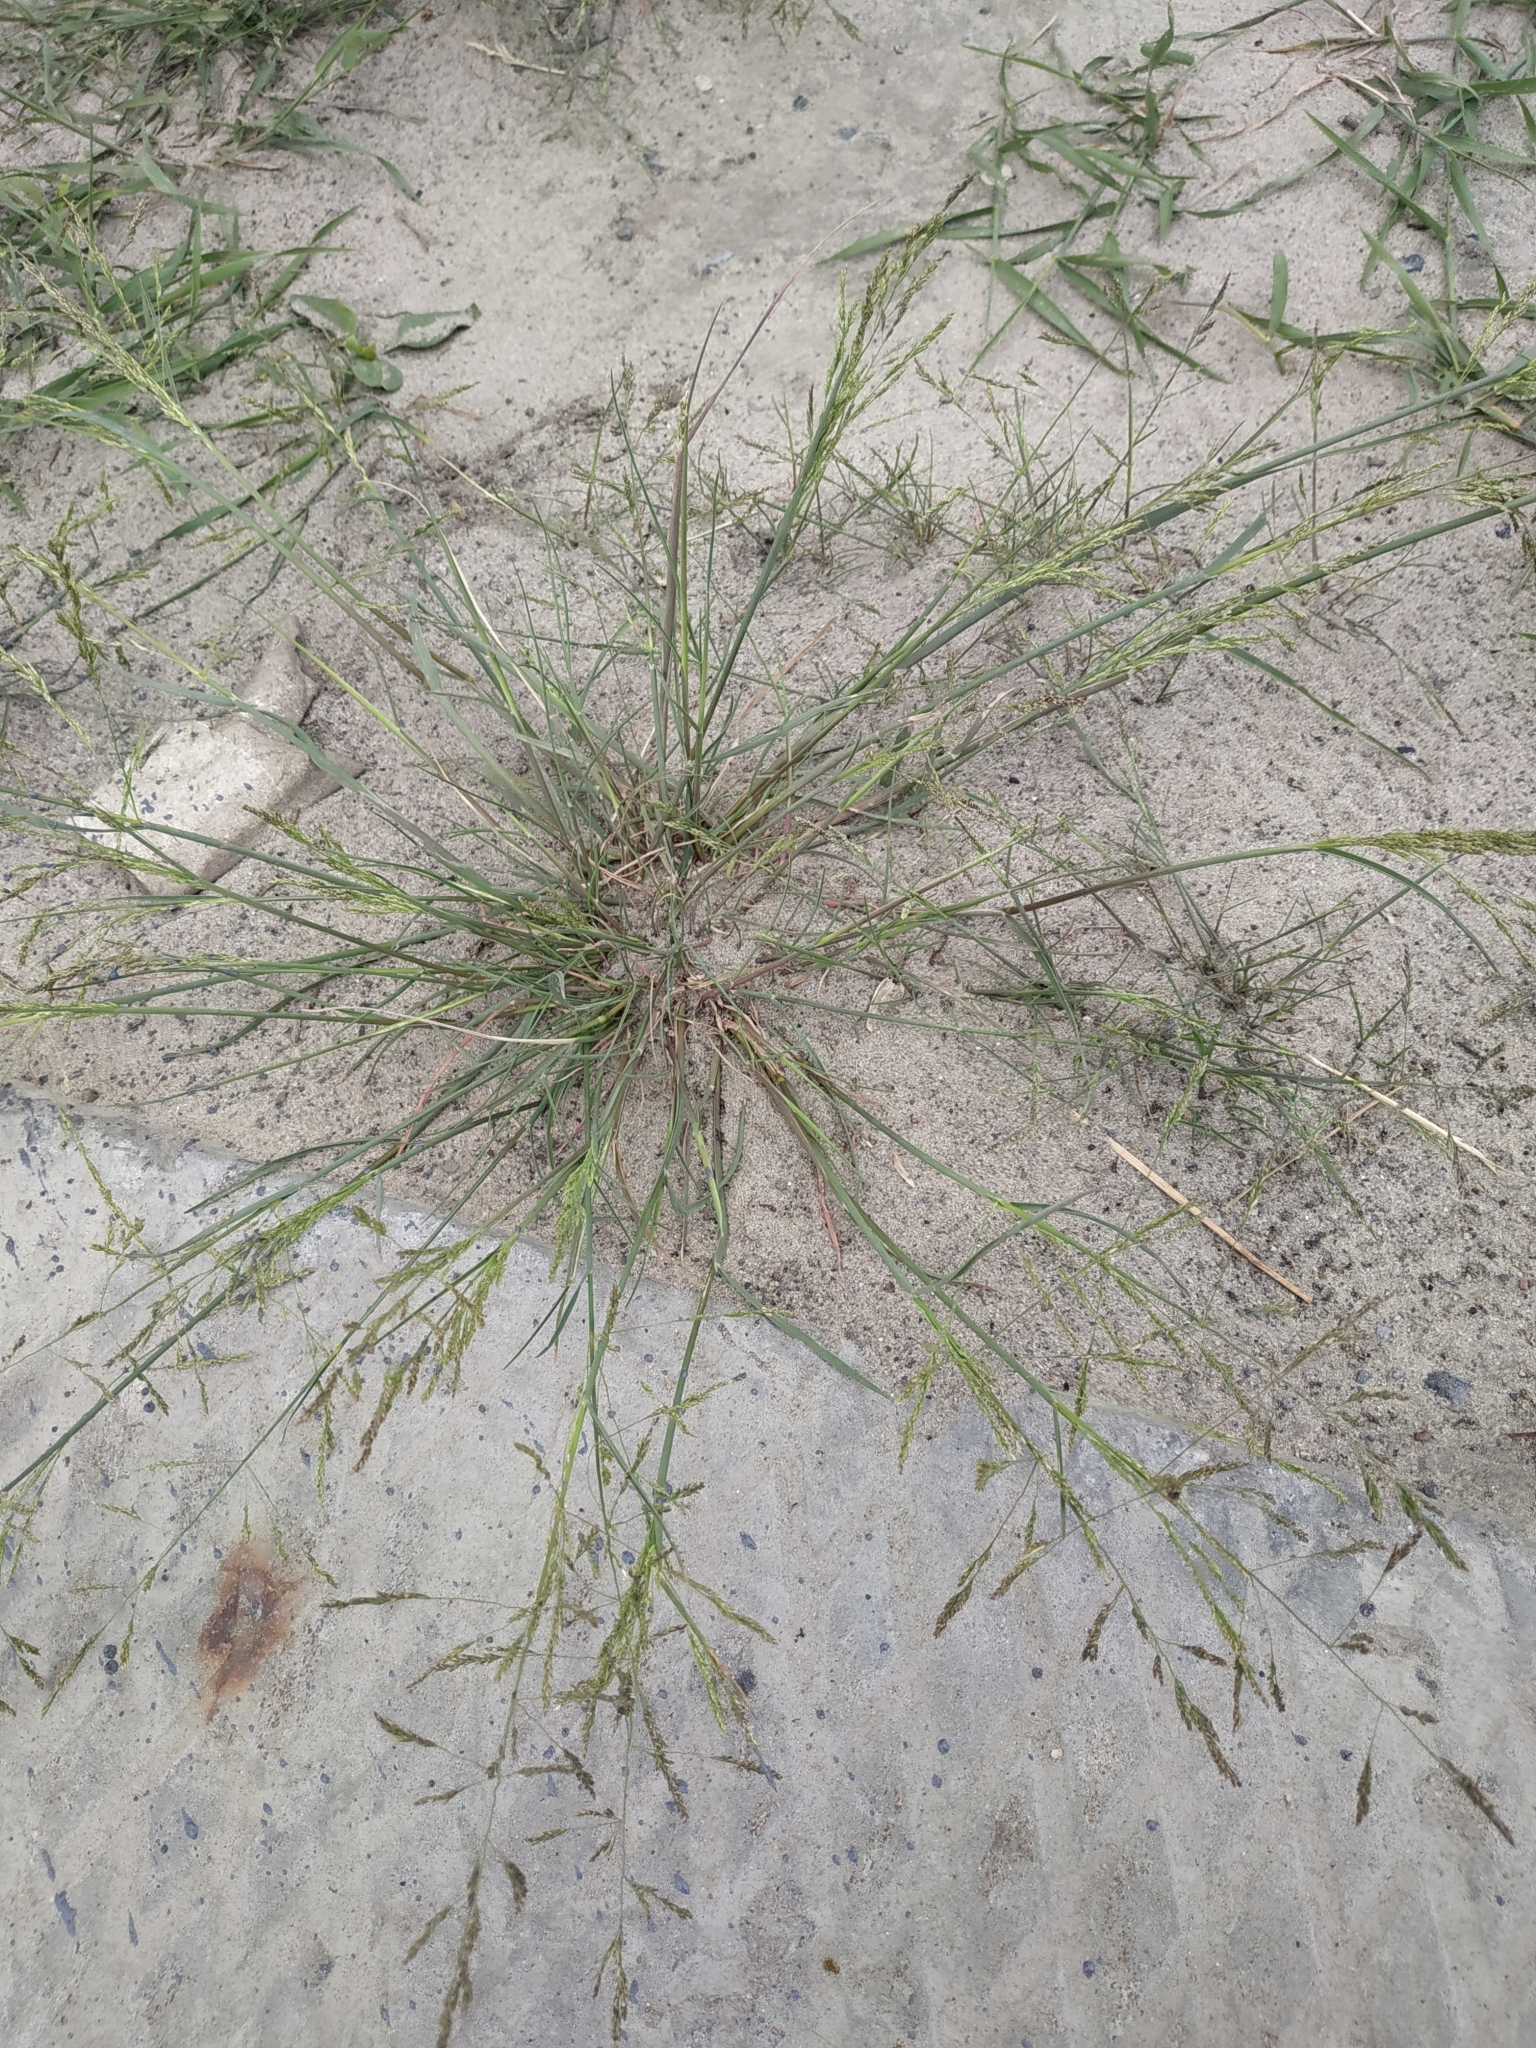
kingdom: Plantae
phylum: Tracheophyta
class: Liliopsida
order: Poales
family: Poaceae
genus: Puccinellia
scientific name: Puccinellia distans
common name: Weeping alkaligrass
